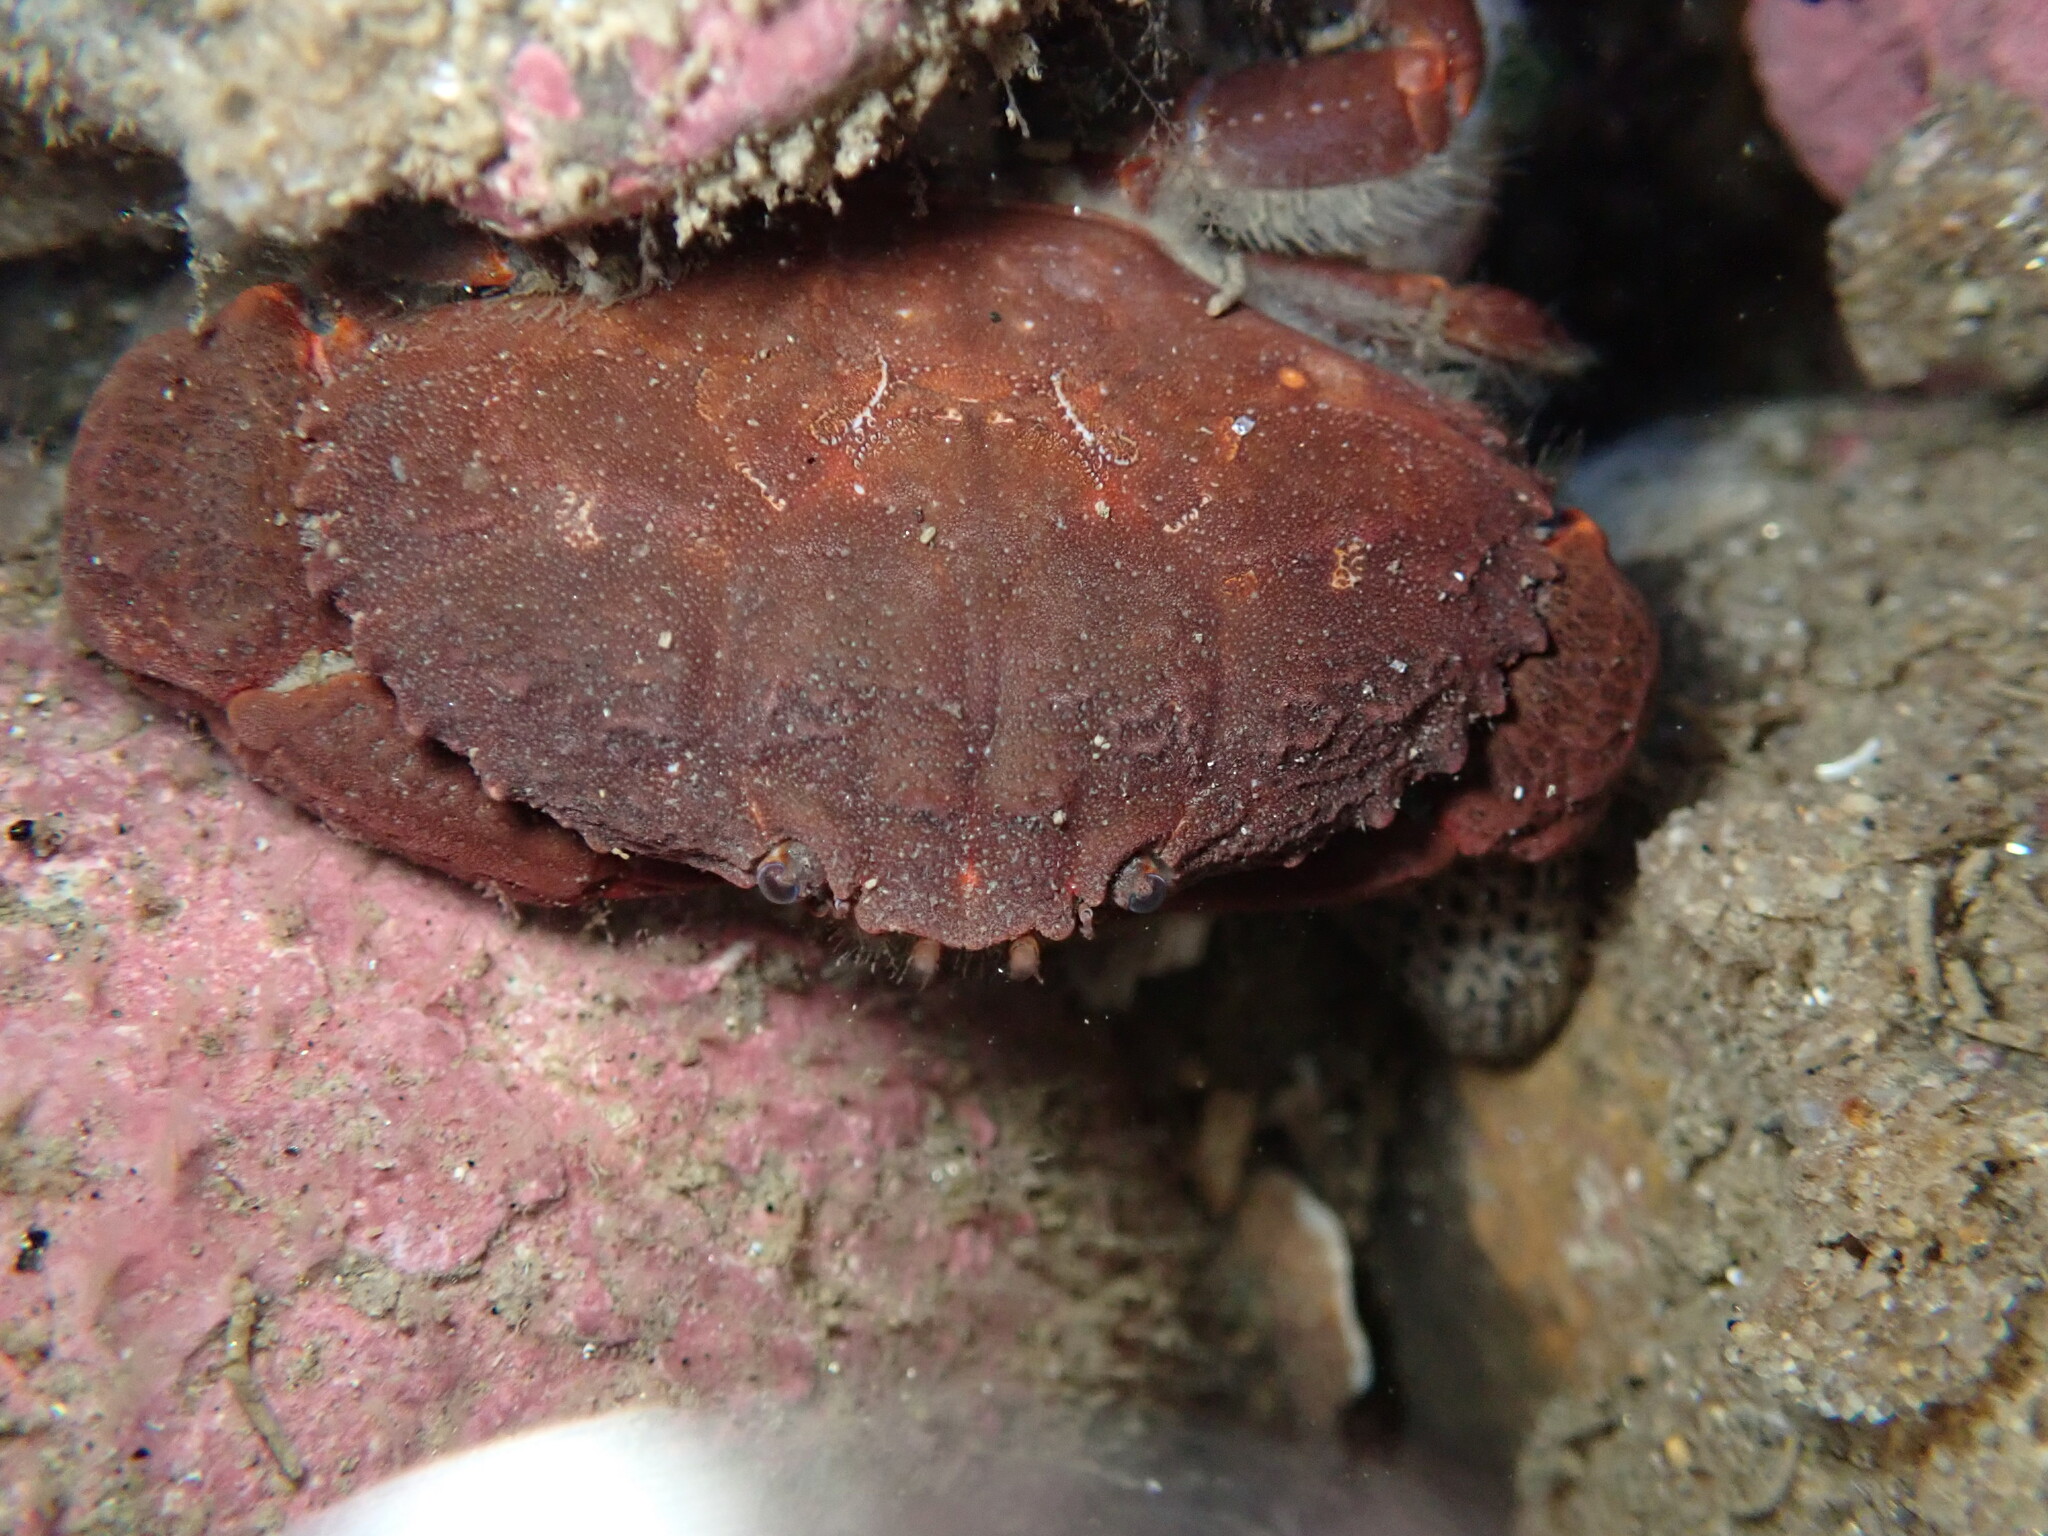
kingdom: Animalia
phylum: Arthropoda
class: Malacostraca
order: Decapoda
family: Xanthidae
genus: Cycloxanthops
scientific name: Cycloxanthops novemdentatus
